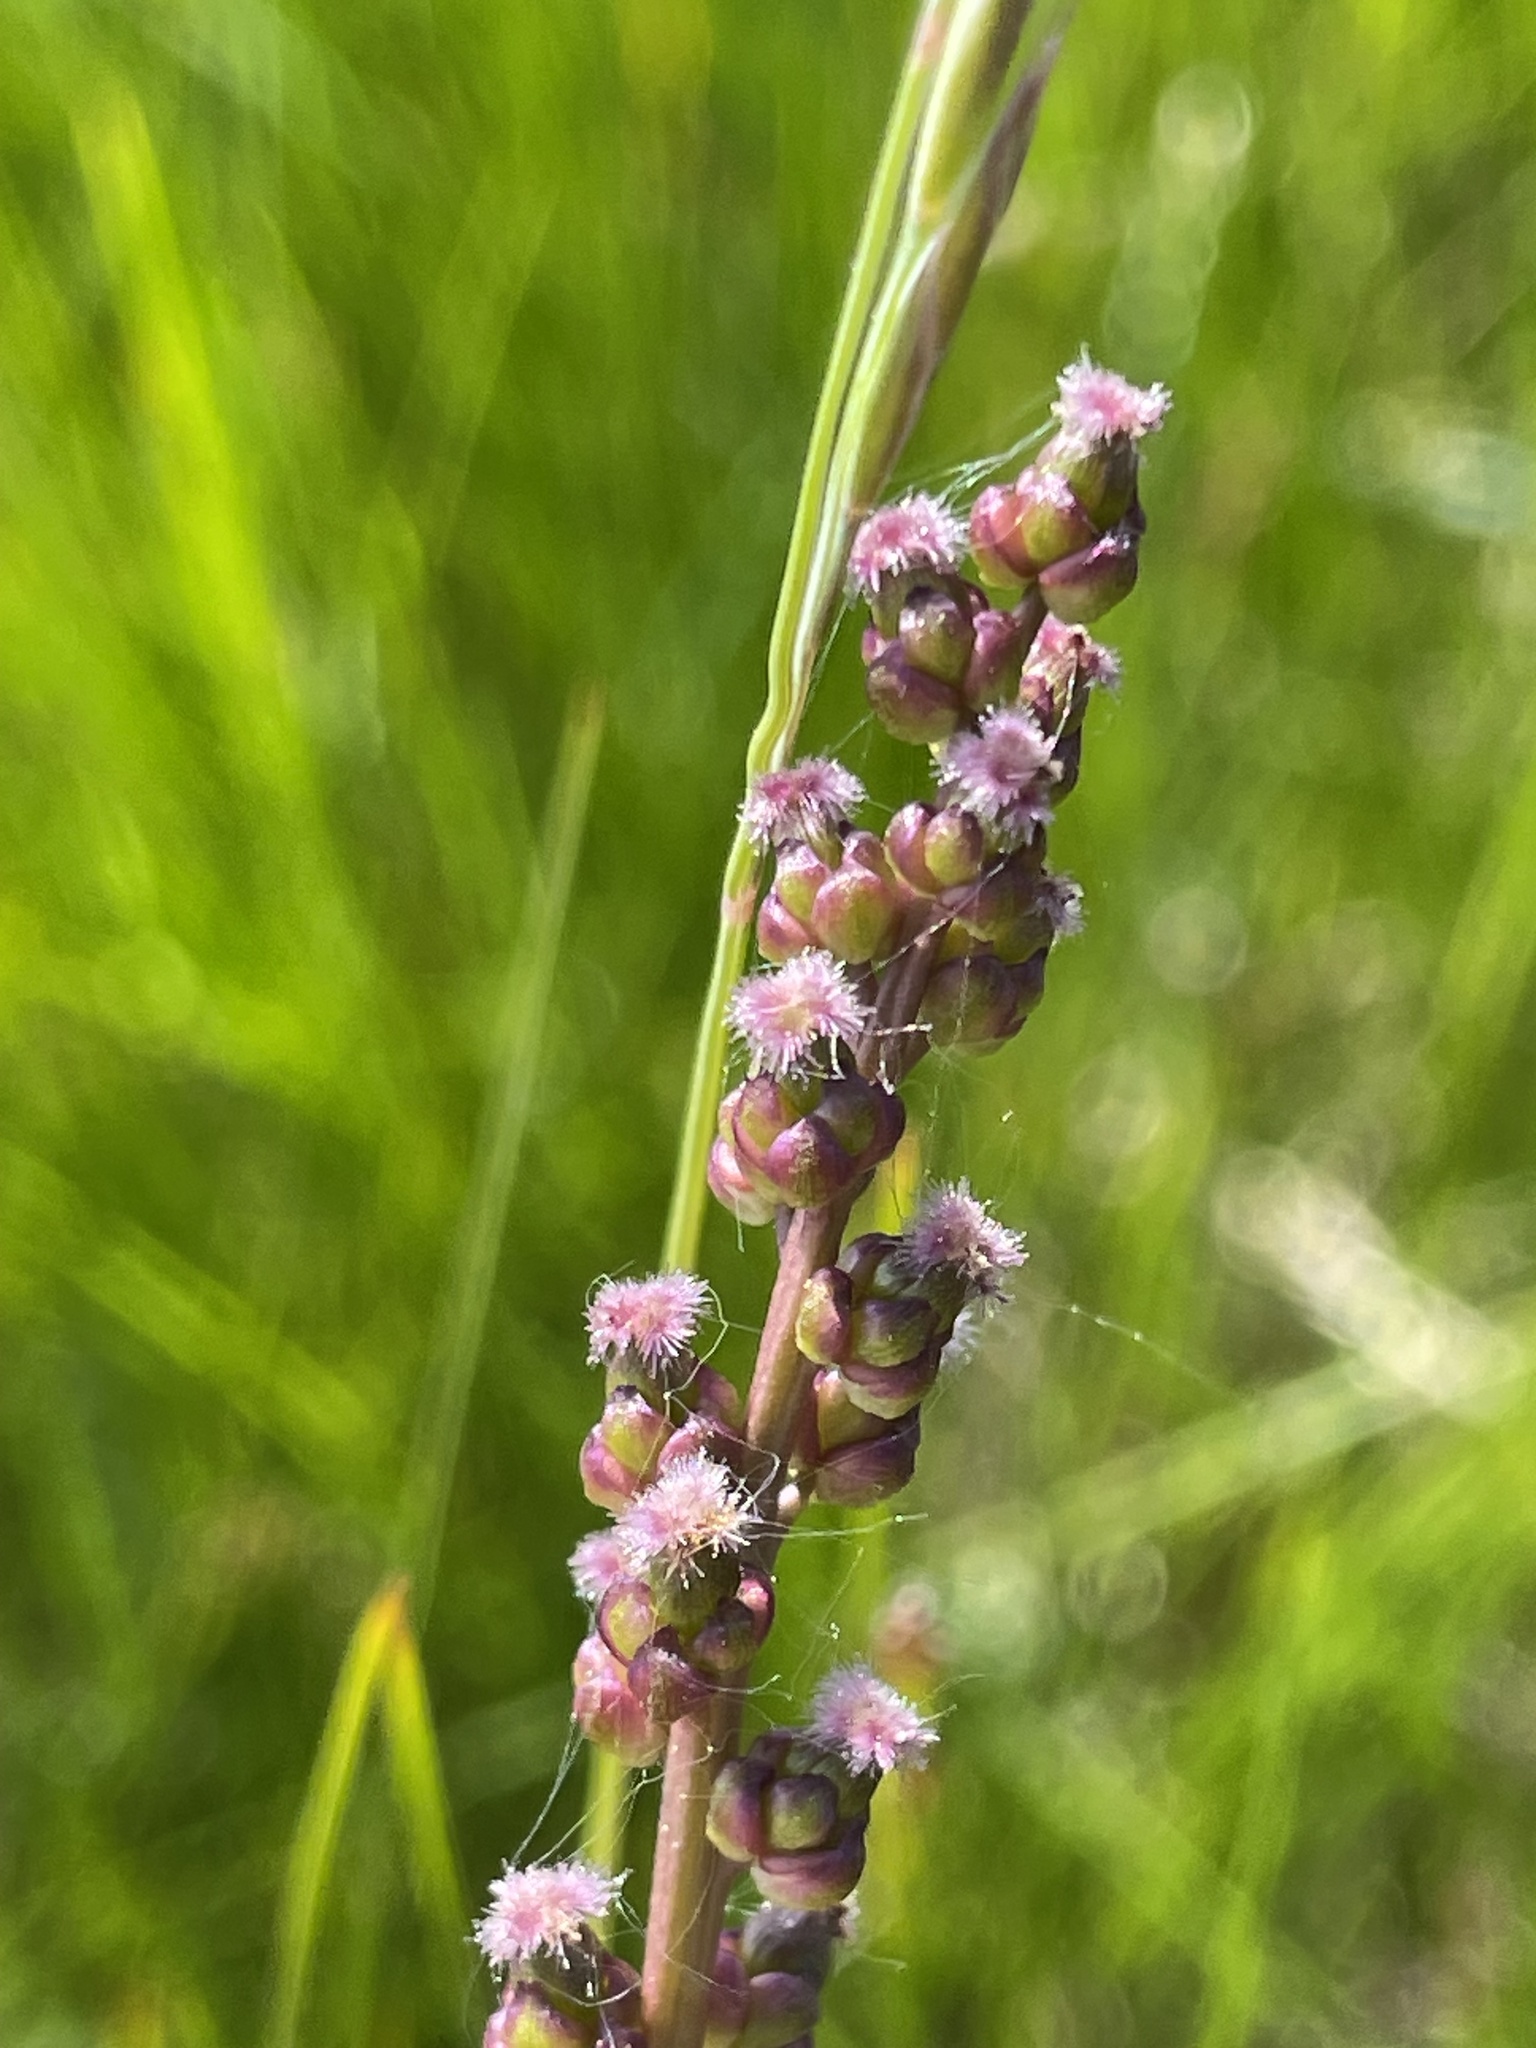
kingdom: Plantae
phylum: Tracheophyta
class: Liliopsida
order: Alismatales
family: Juncaginaceae
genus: Triglochin
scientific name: Triglochin maritima
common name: Sea arrowgrass
